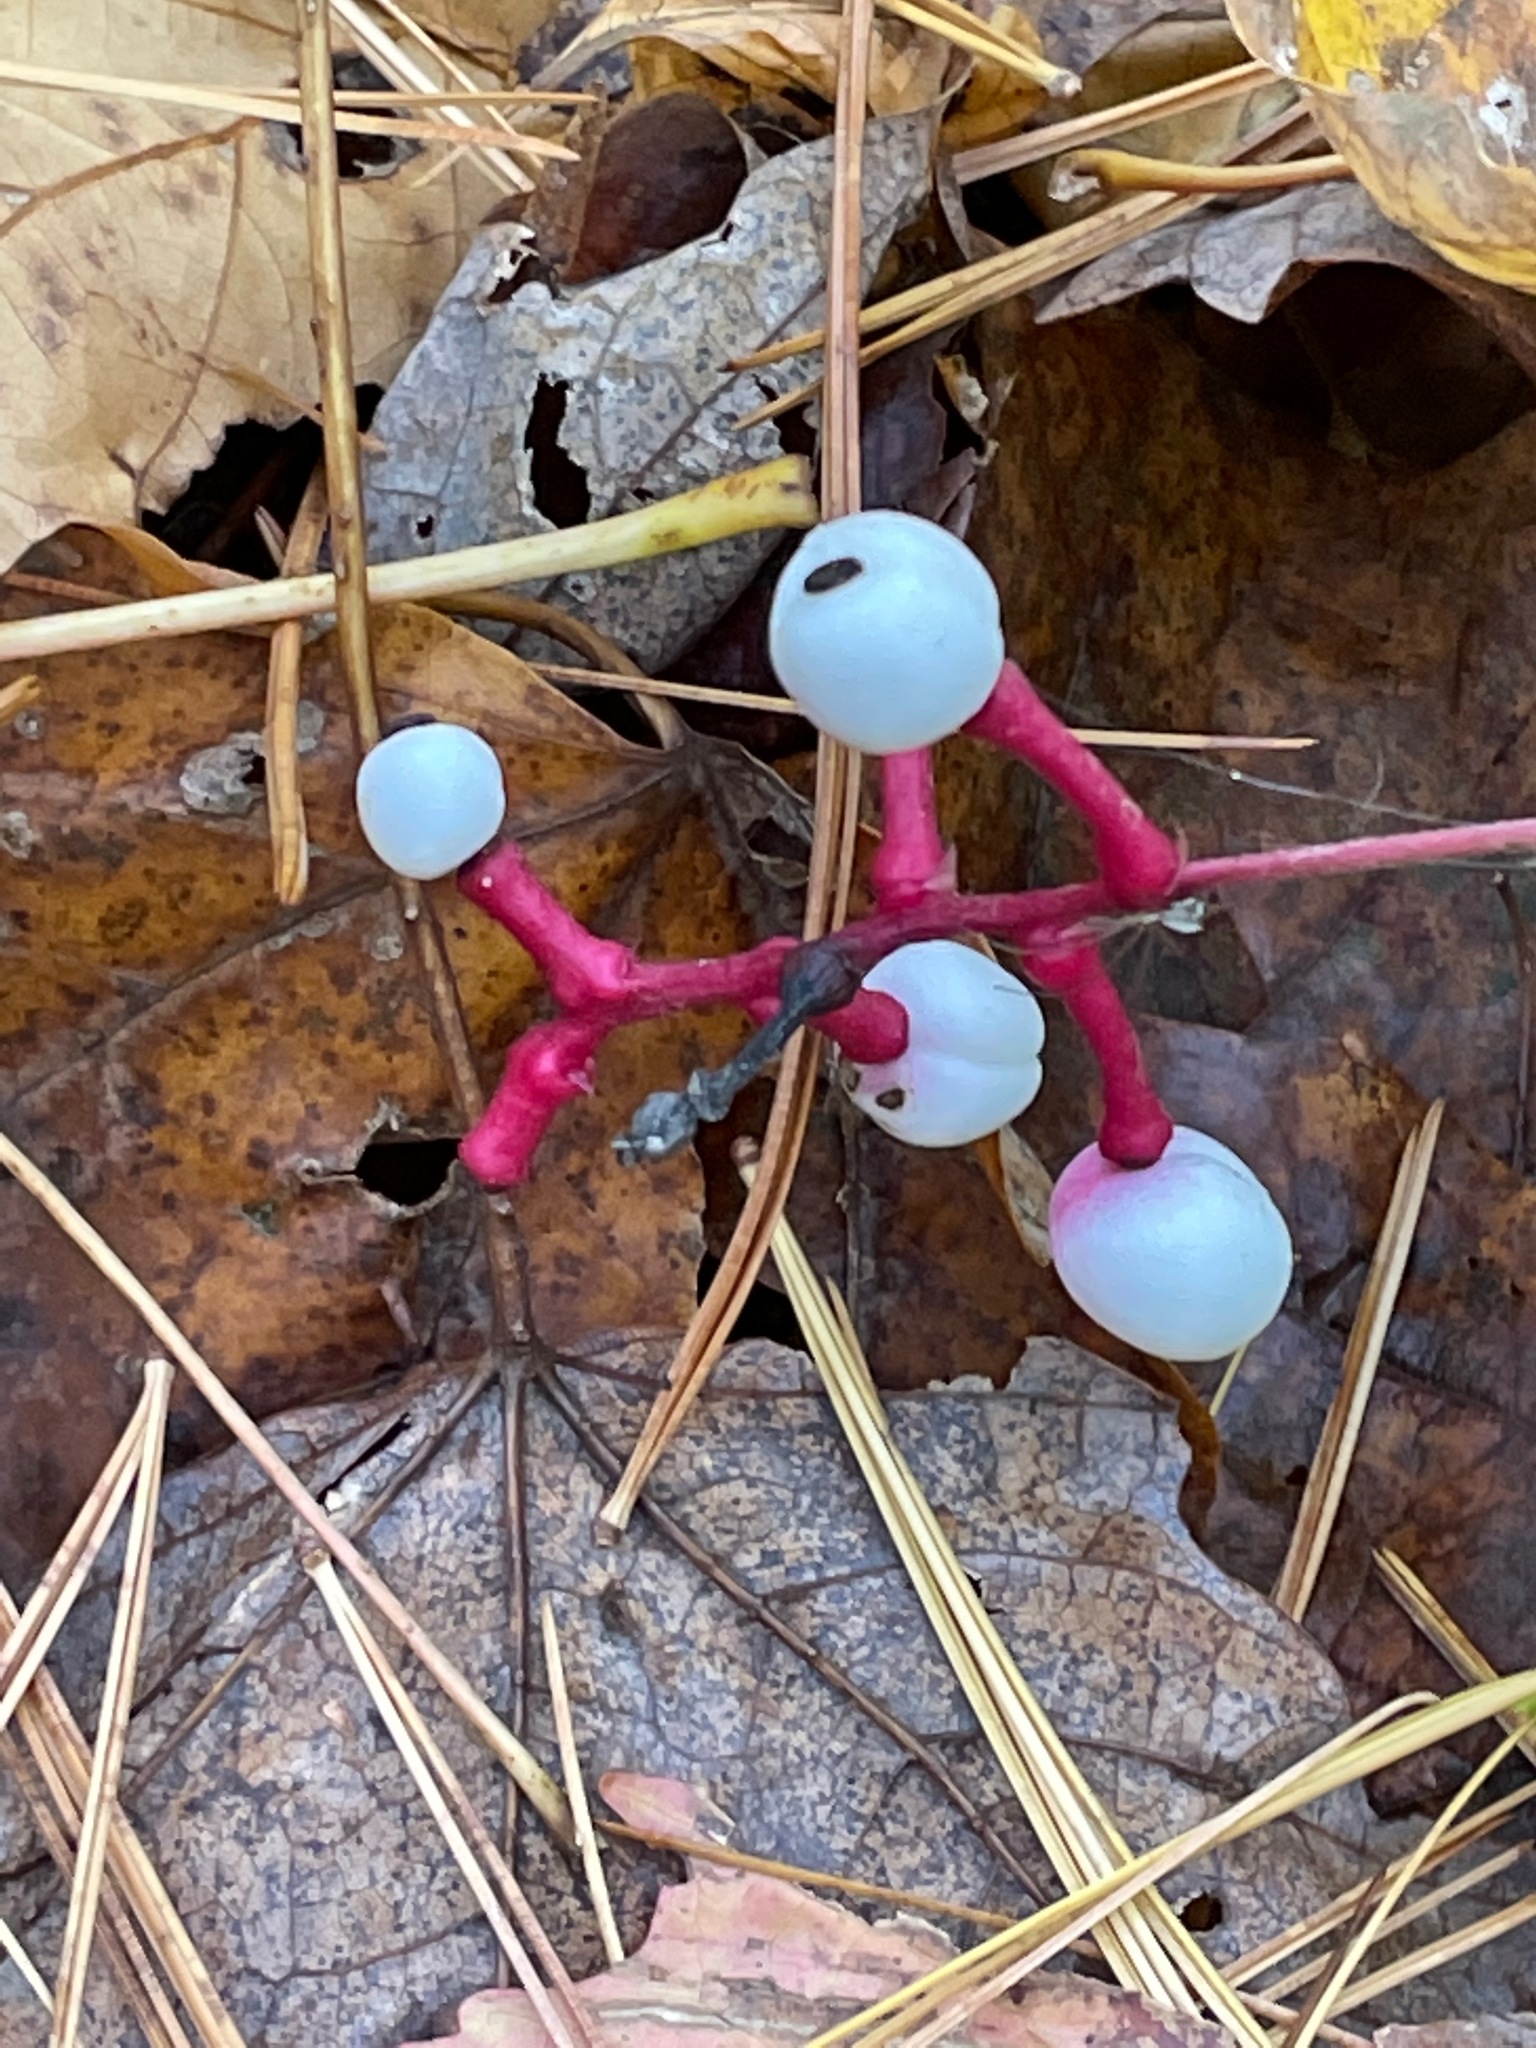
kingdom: Plantae
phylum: Tracheophyta
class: Magnoliopsida
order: Ranunculales
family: Ranunculaceae
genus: Actaea
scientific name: Actaea pachypoda
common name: Doll's-eyes
